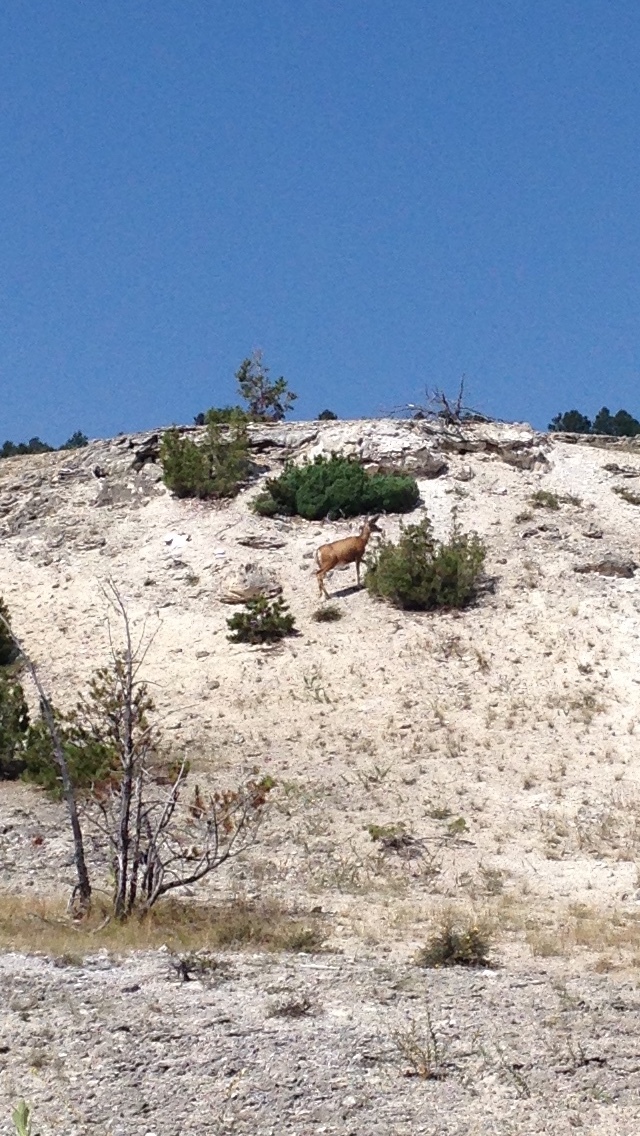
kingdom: Animalia
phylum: Chordata
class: Mammalia
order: Artiodactyla
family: Cervidae
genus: Odocoileus
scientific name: Odocoileus hemionus
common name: Mule deer
